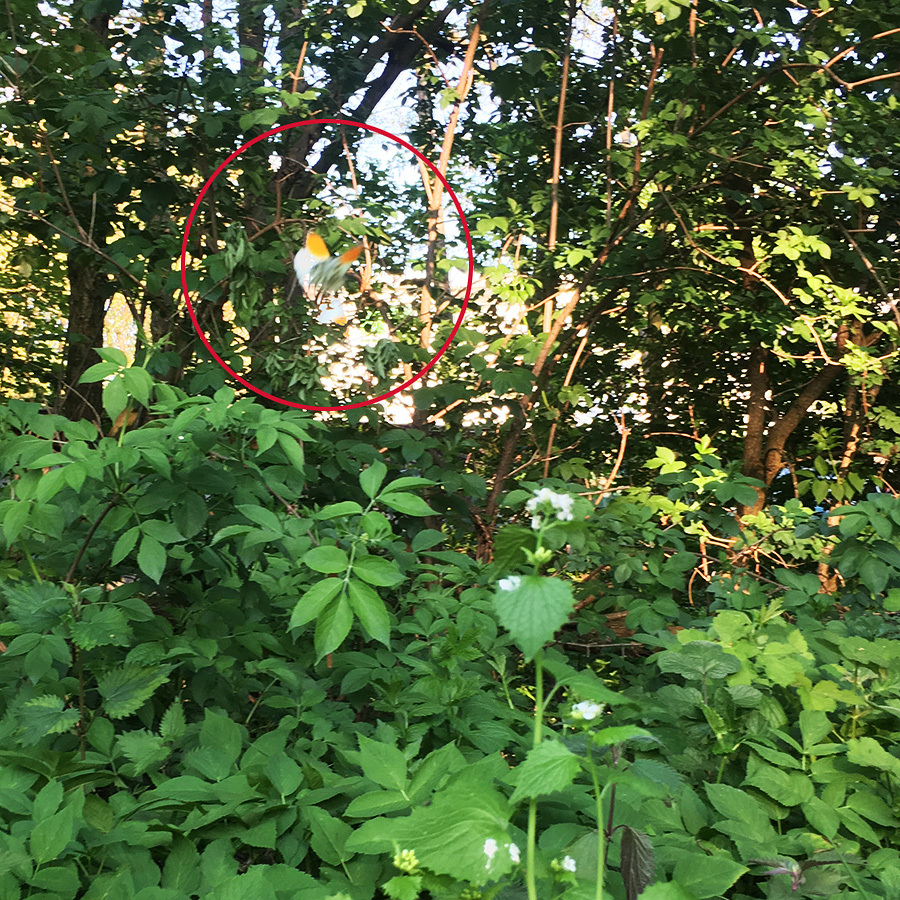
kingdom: Animalia
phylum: Arthropoda
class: Insecta
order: Lepidoptera
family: Pieridae
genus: Anthocharis
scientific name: Anthocharis cardamines
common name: Orange-tip
